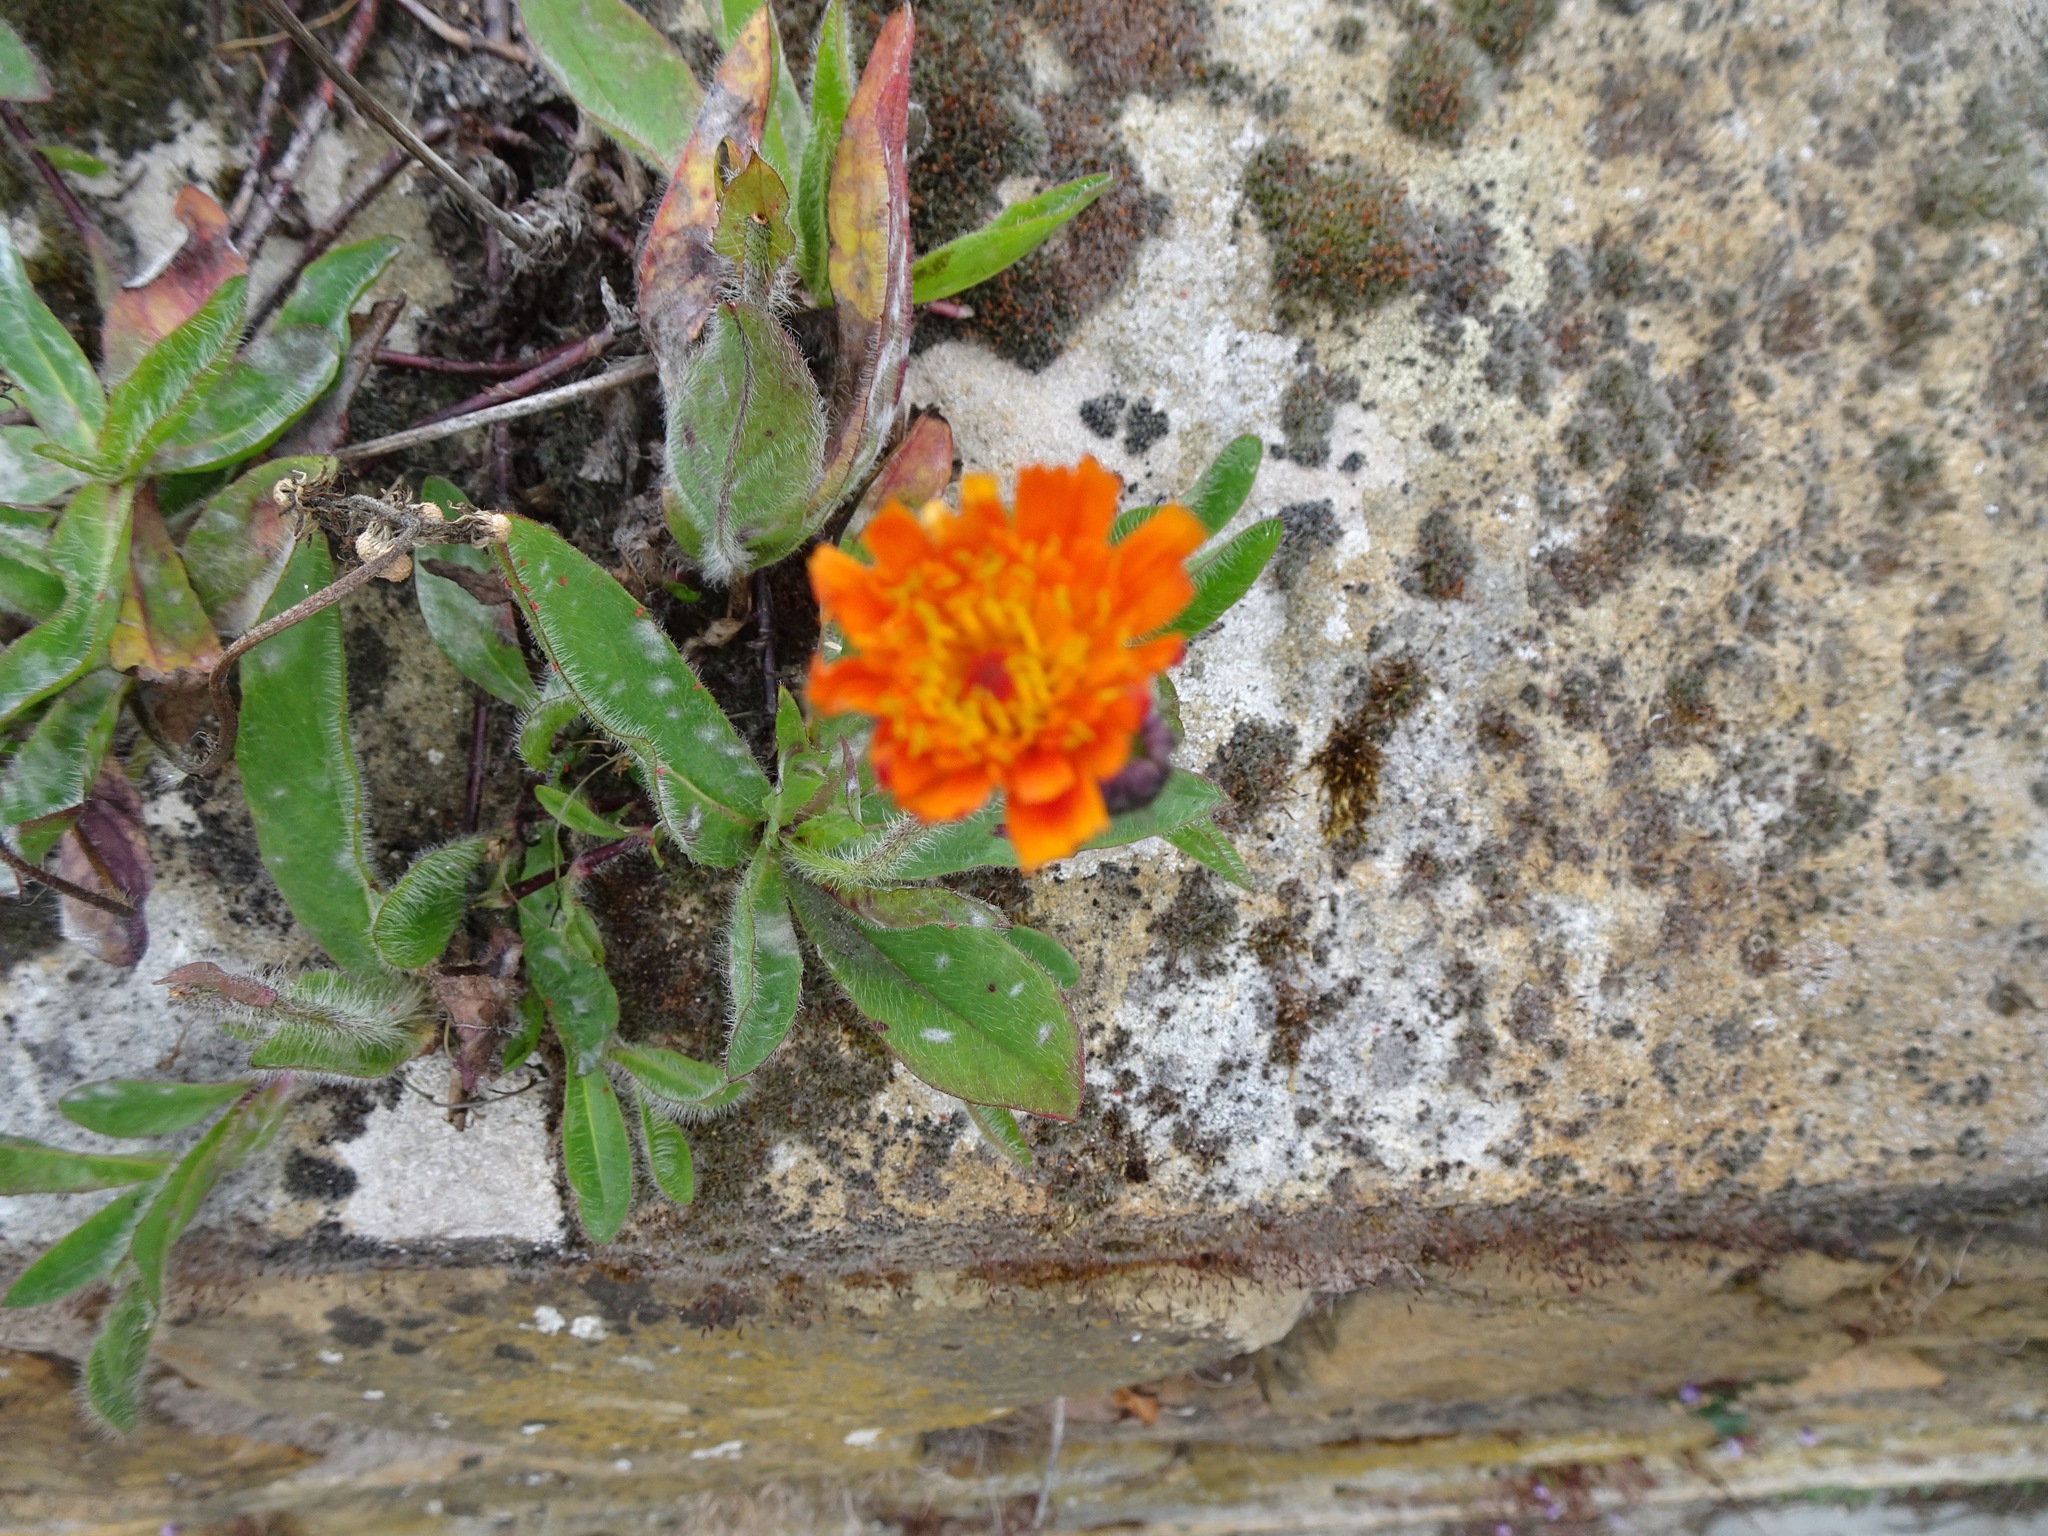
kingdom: Plantae
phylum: Tracheophyta
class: Magnoliopsida
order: Asterales
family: Asteraceae
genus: Pilosella
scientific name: Pilosella aurantiaca
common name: Fox-and-cubs
